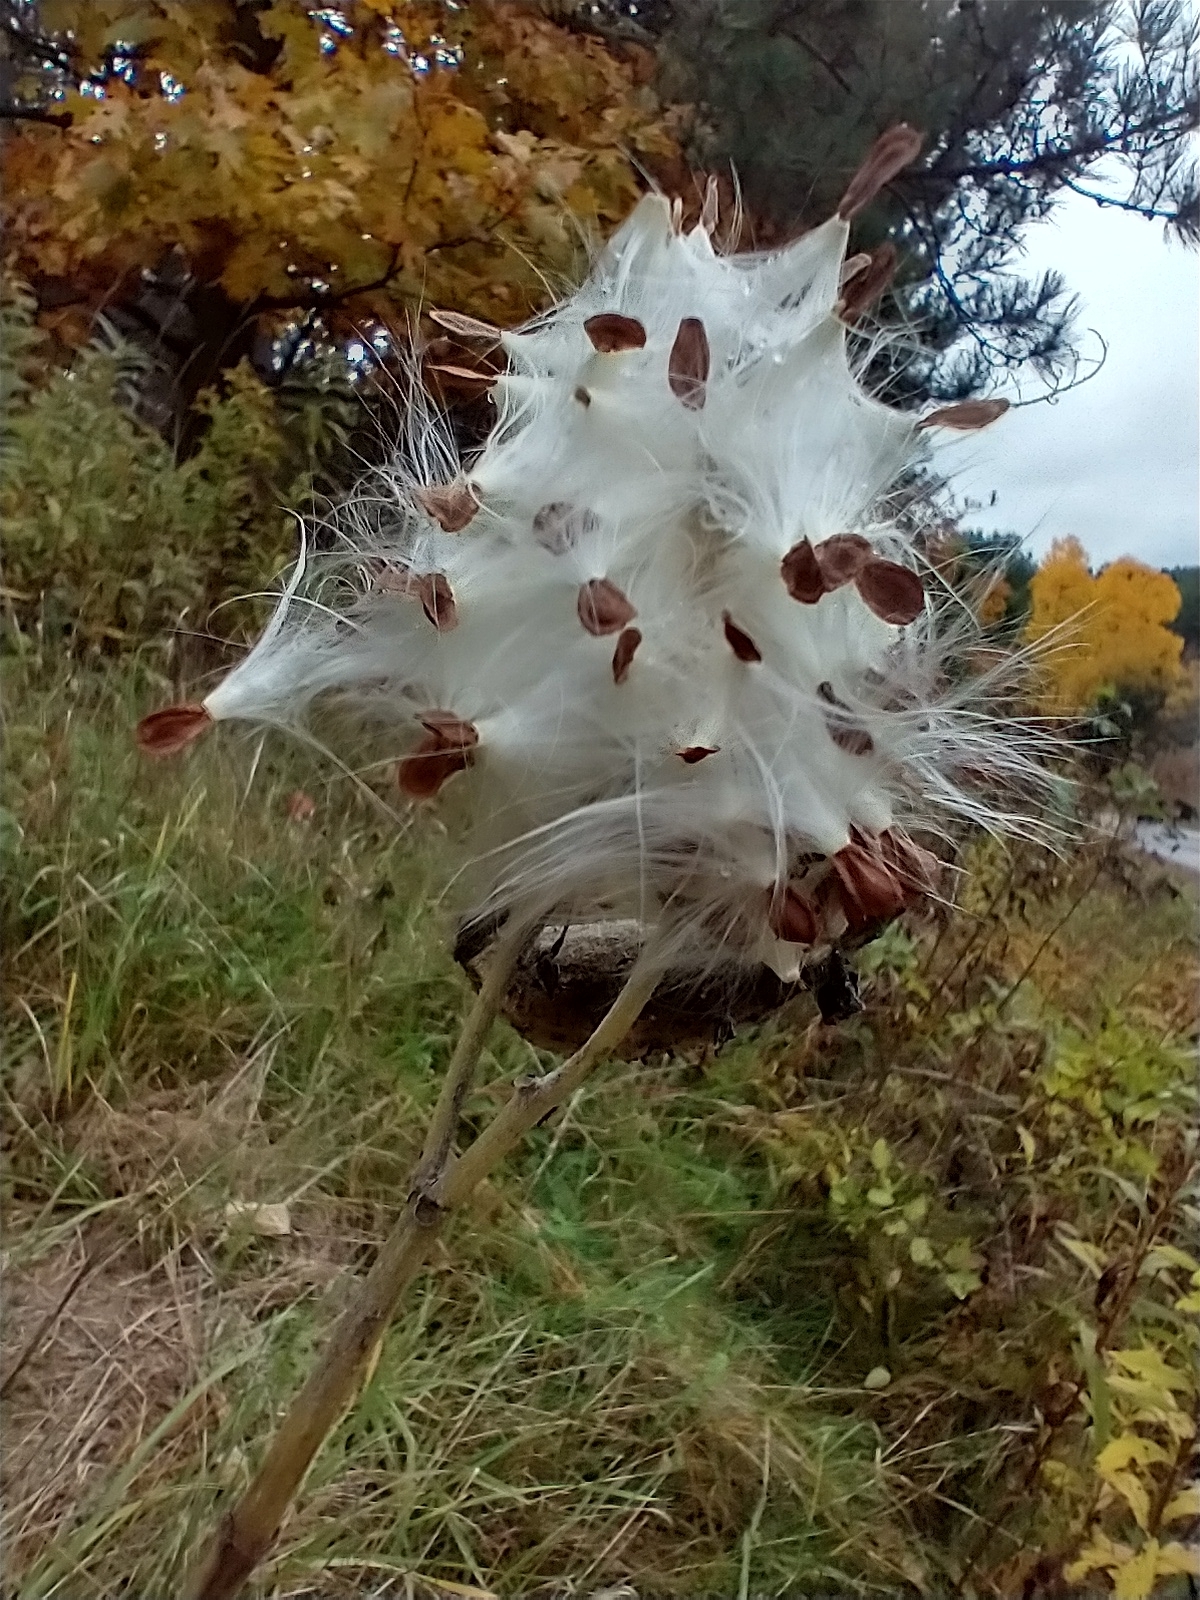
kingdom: Plantae
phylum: Tracheophyta
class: Magnoliopsida
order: Gentianales
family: Apocynaceae
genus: Asclepias
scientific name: Asclepias syriaca
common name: Common milkweed
